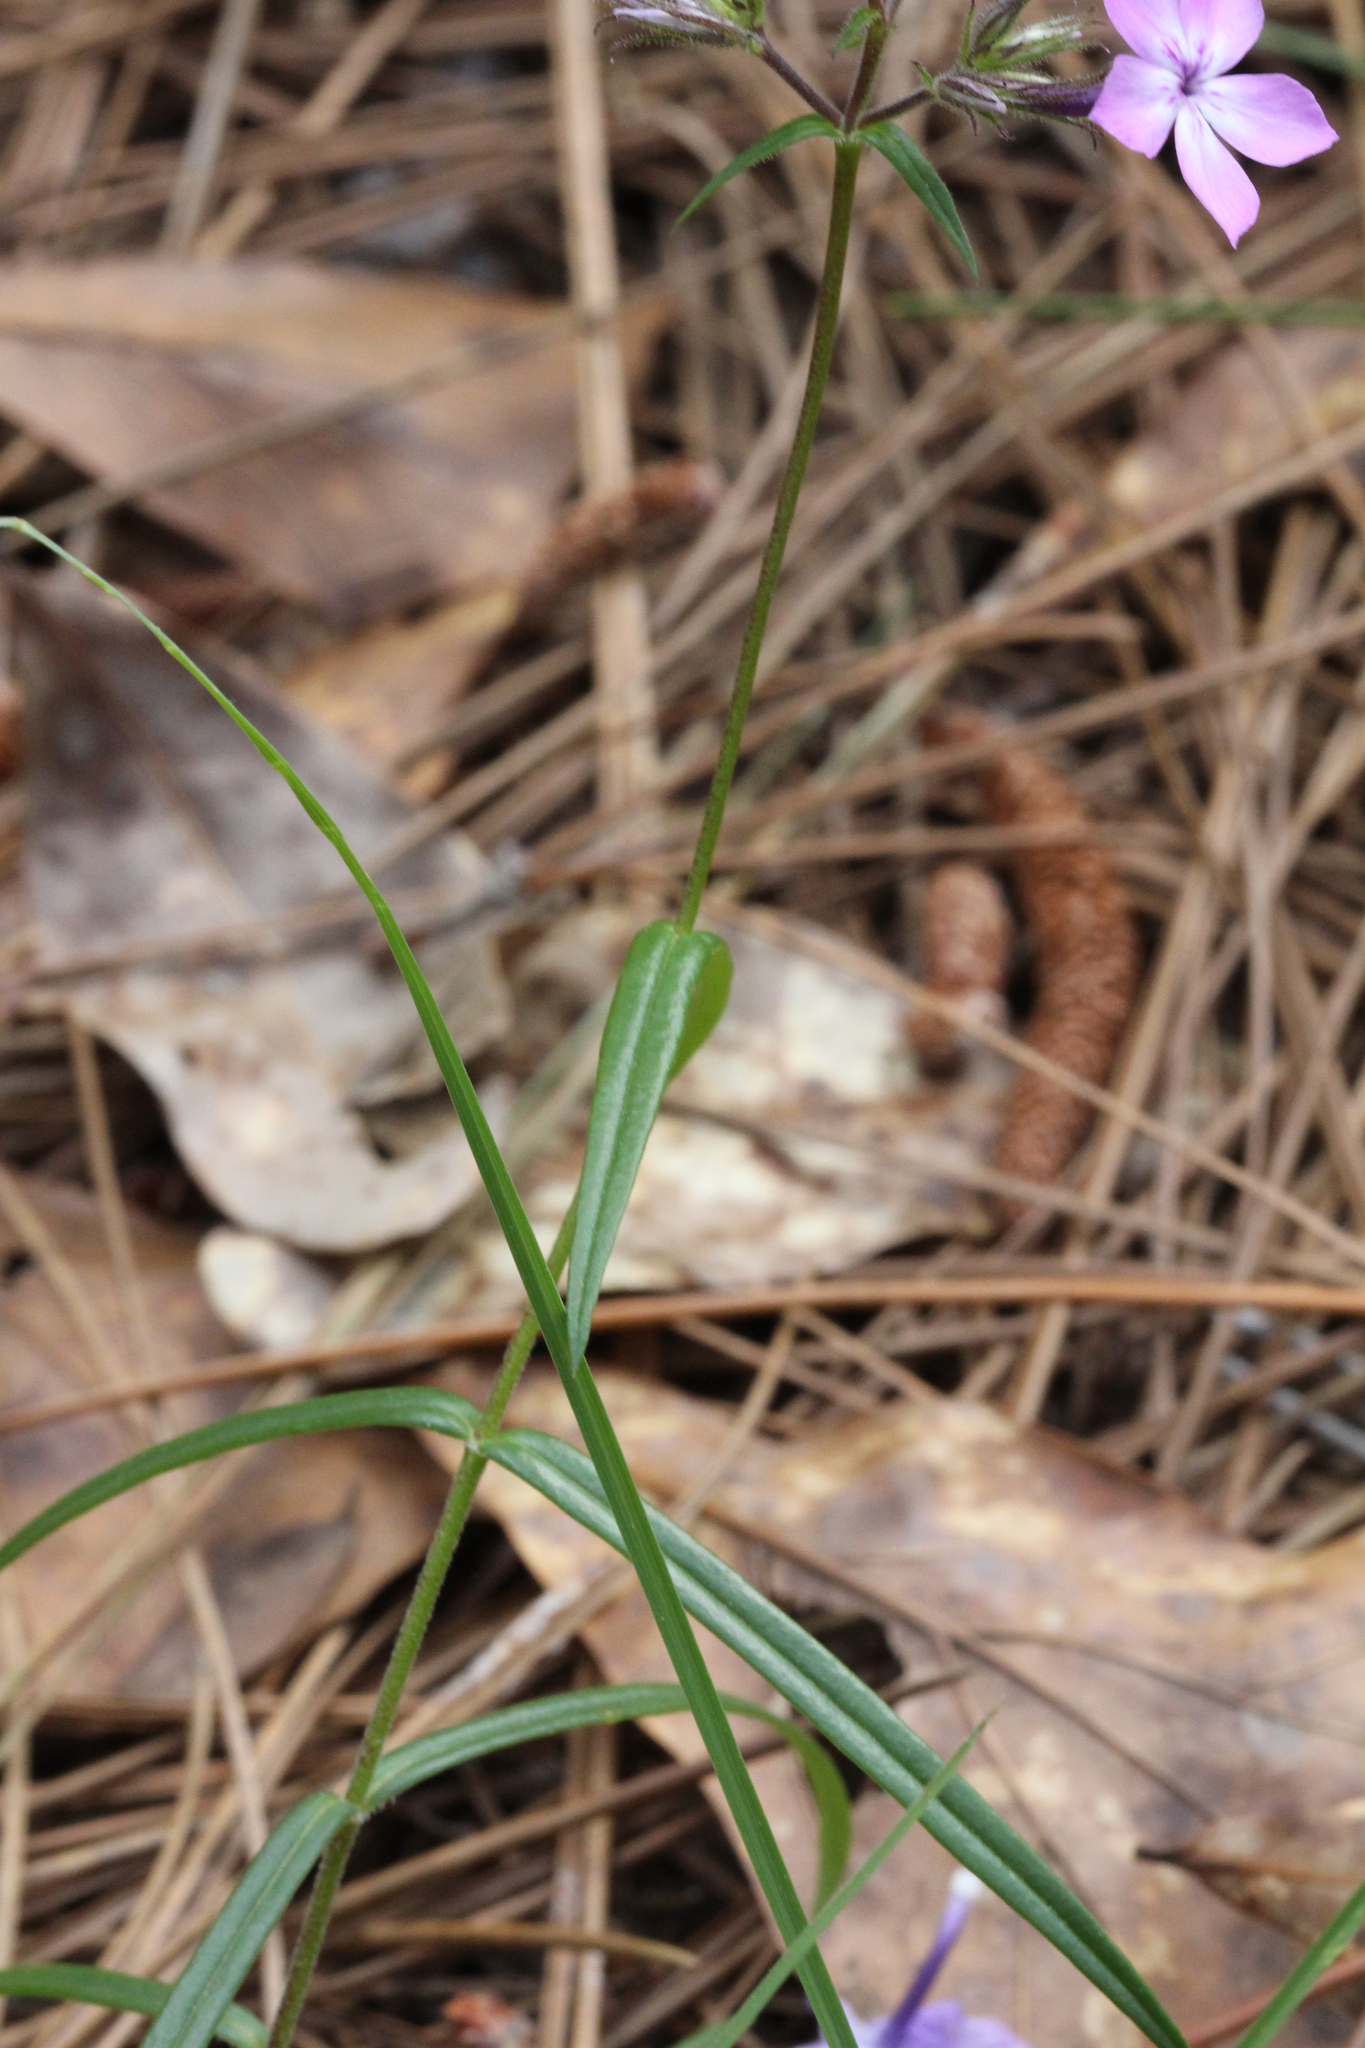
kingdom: Plantae
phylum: Tracheophyta
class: Magnoliopsida
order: Ericales
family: Polemoniaceae
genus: Phlox
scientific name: Phlox pilosa
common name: Prairie phlox
